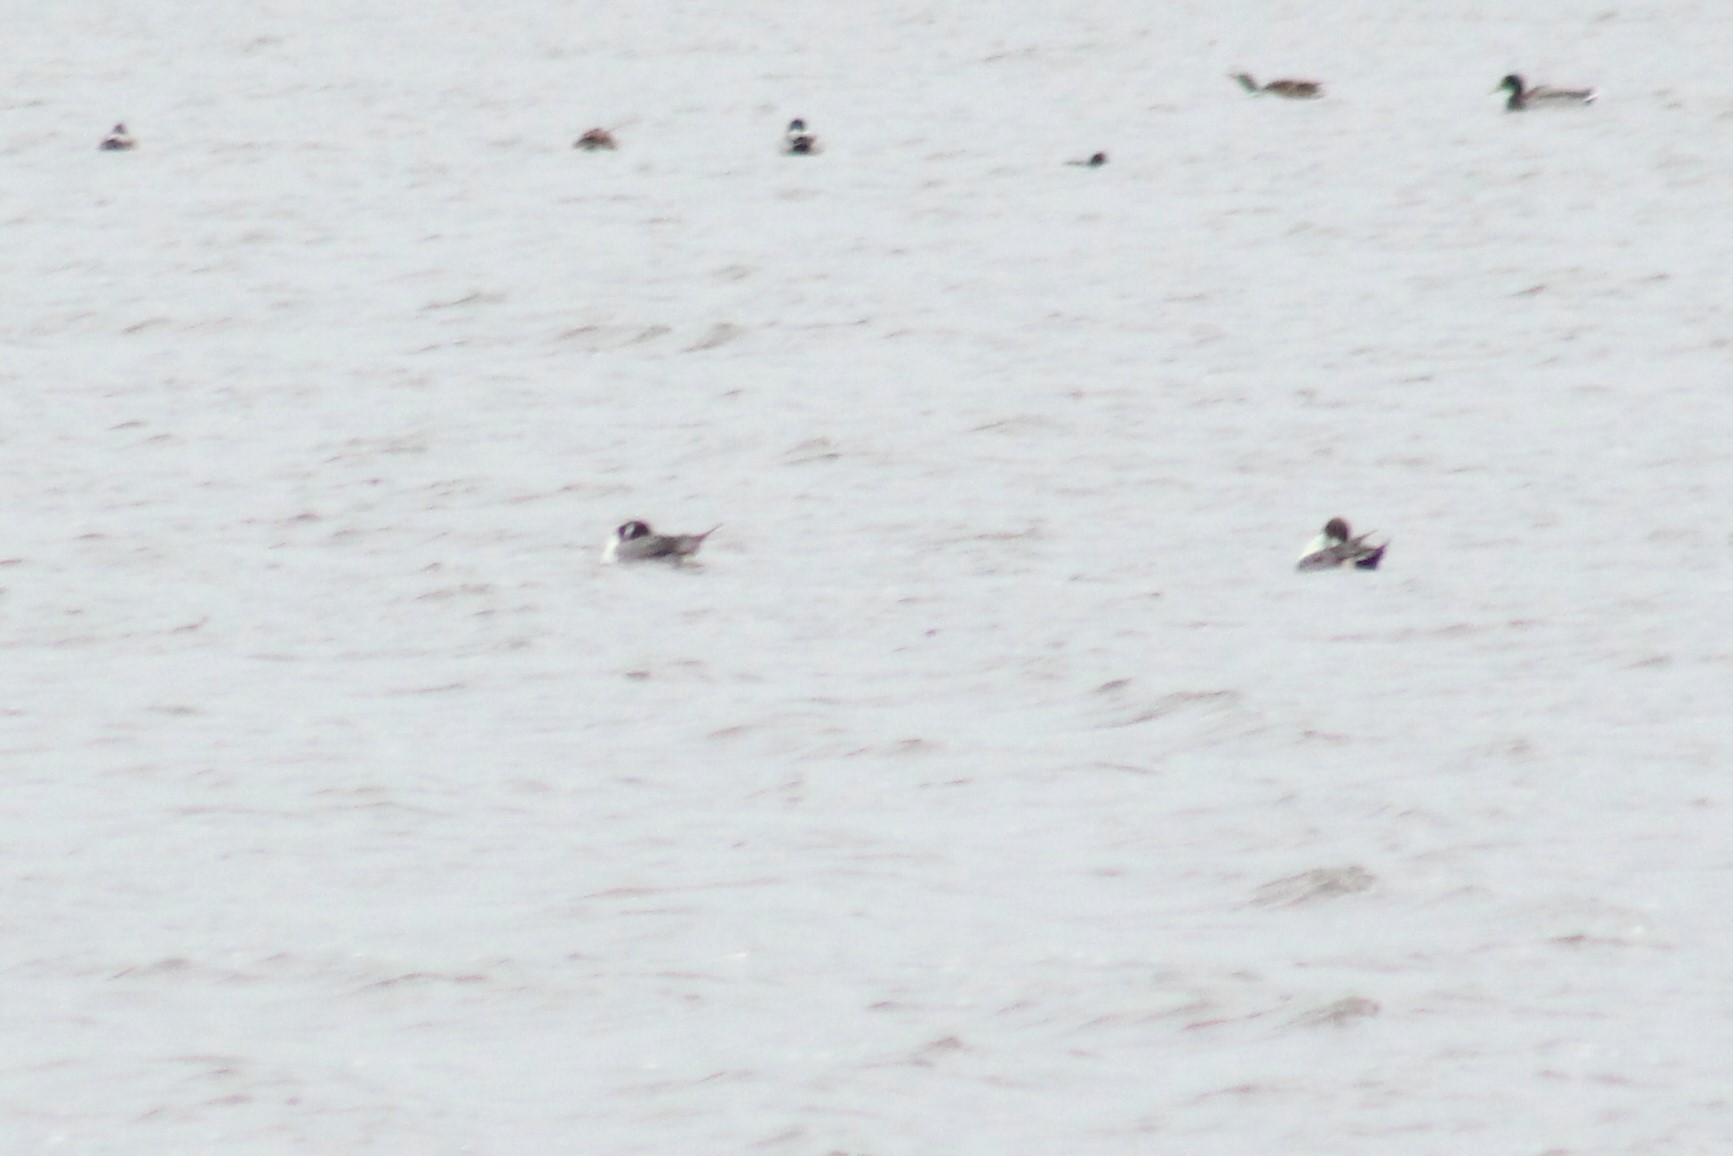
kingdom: Animalia
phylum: Chordata
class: Aves
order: Anseriformes
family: Anatidae
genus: Anas
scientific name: Anas acuta
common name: Northern pintail
